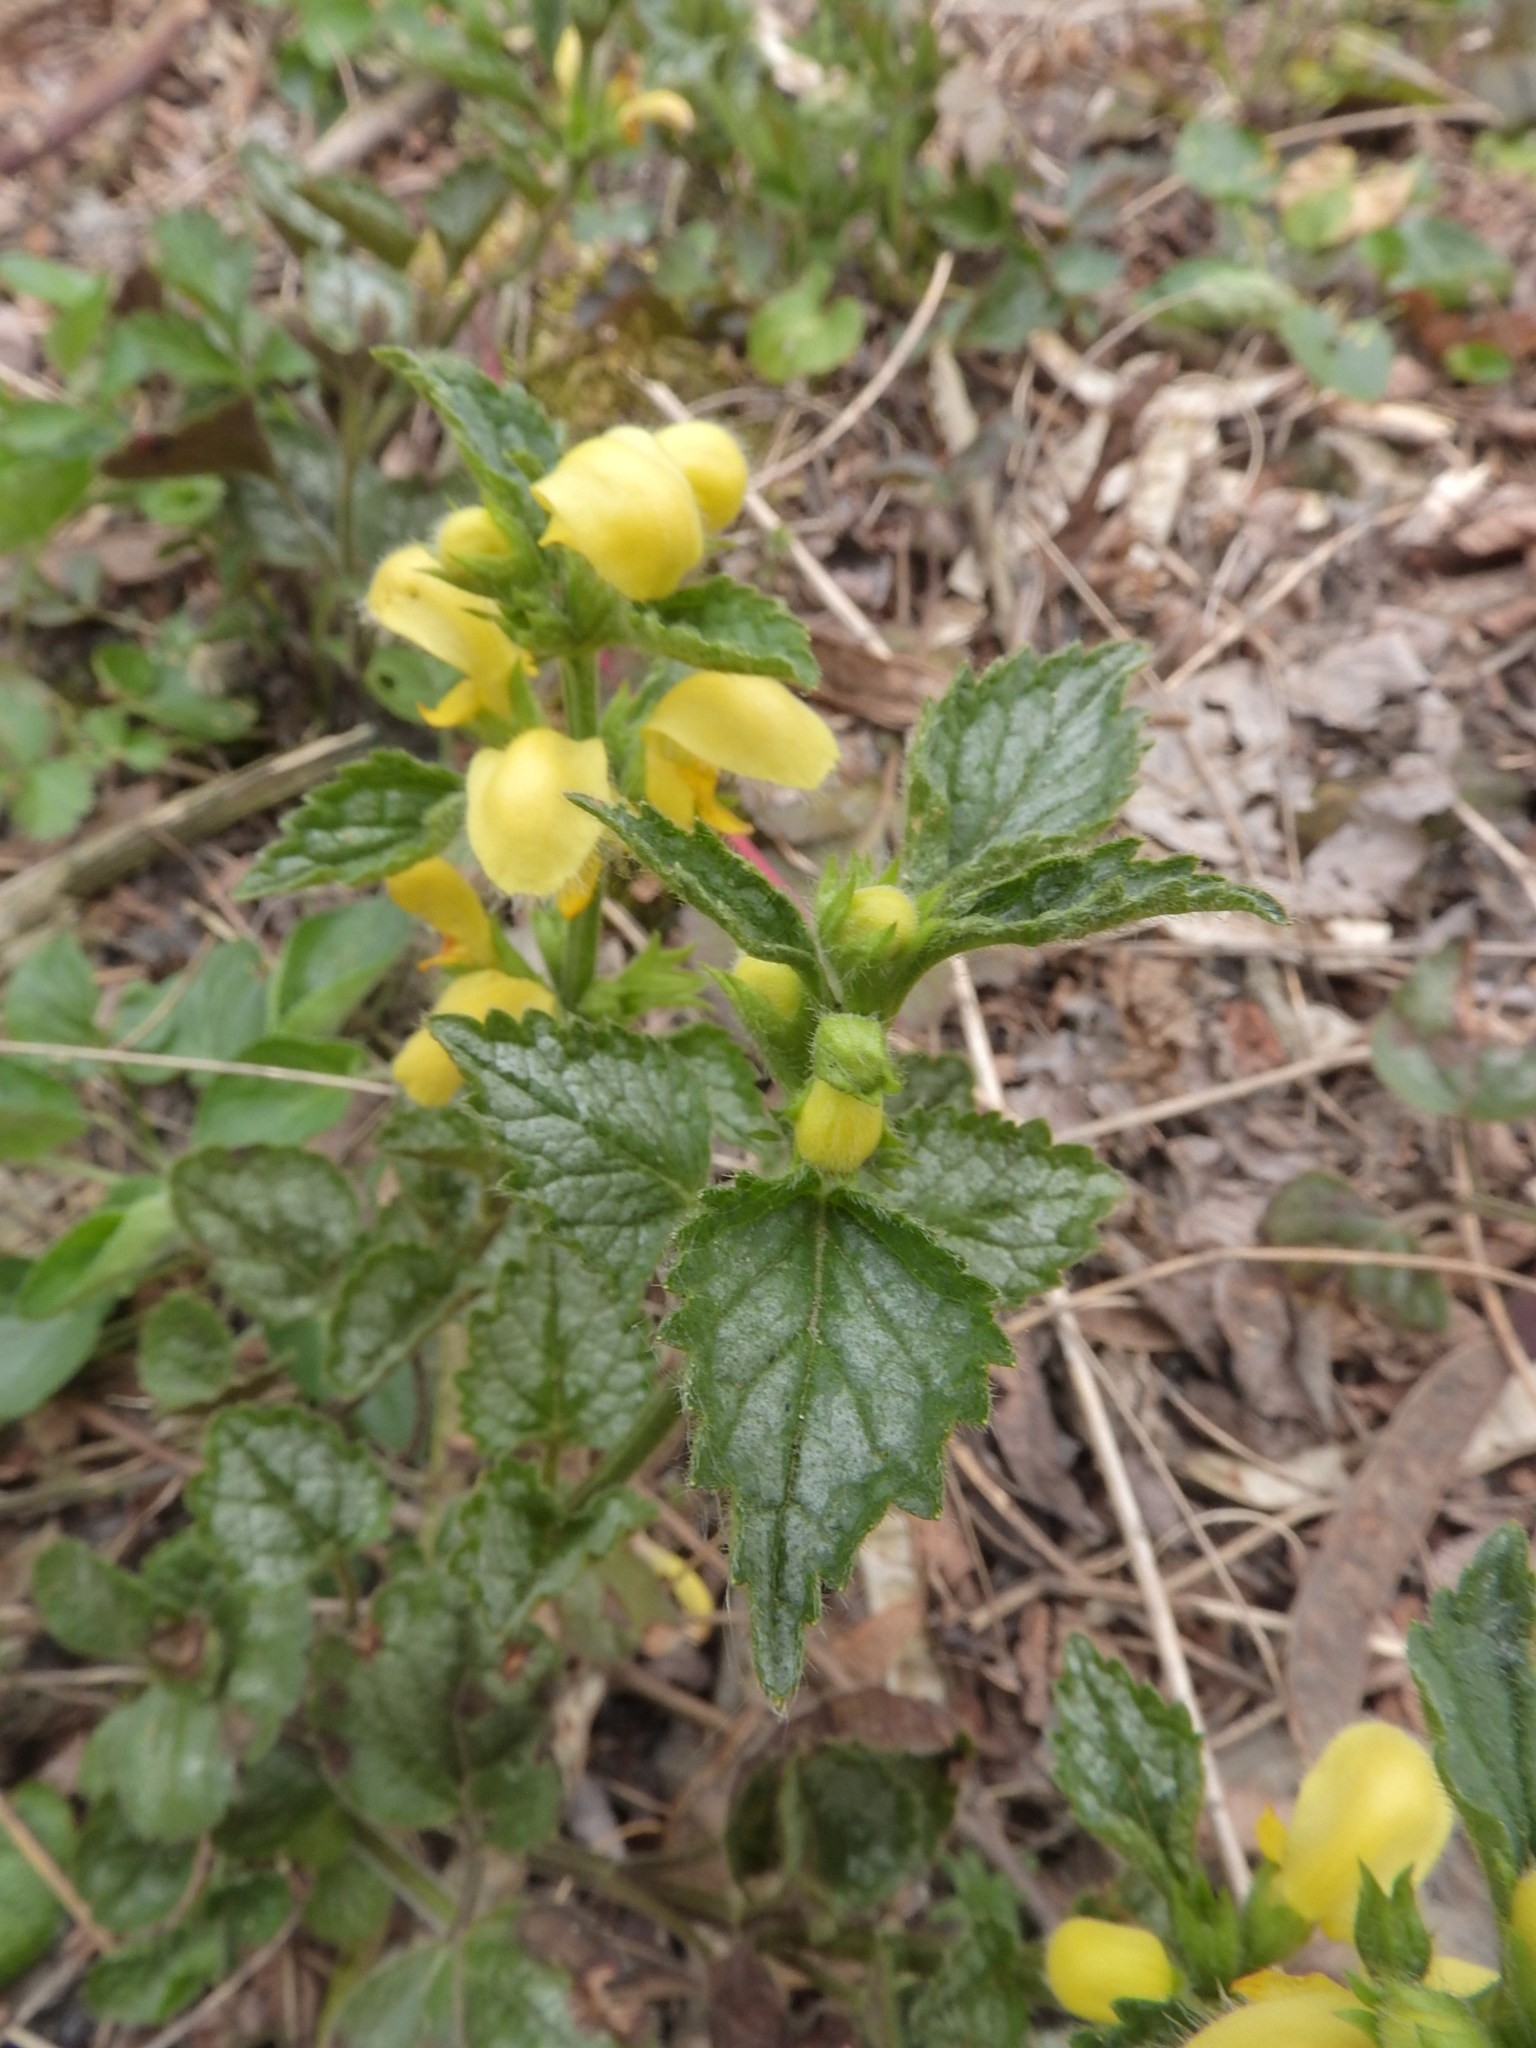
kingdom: Plantae
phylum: Tracheophyta
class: Magnoliopsida
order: Lamiales
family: Lamiaceae
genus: Lamium
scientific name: Lamium galeobdolon
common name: Yellow archangel
